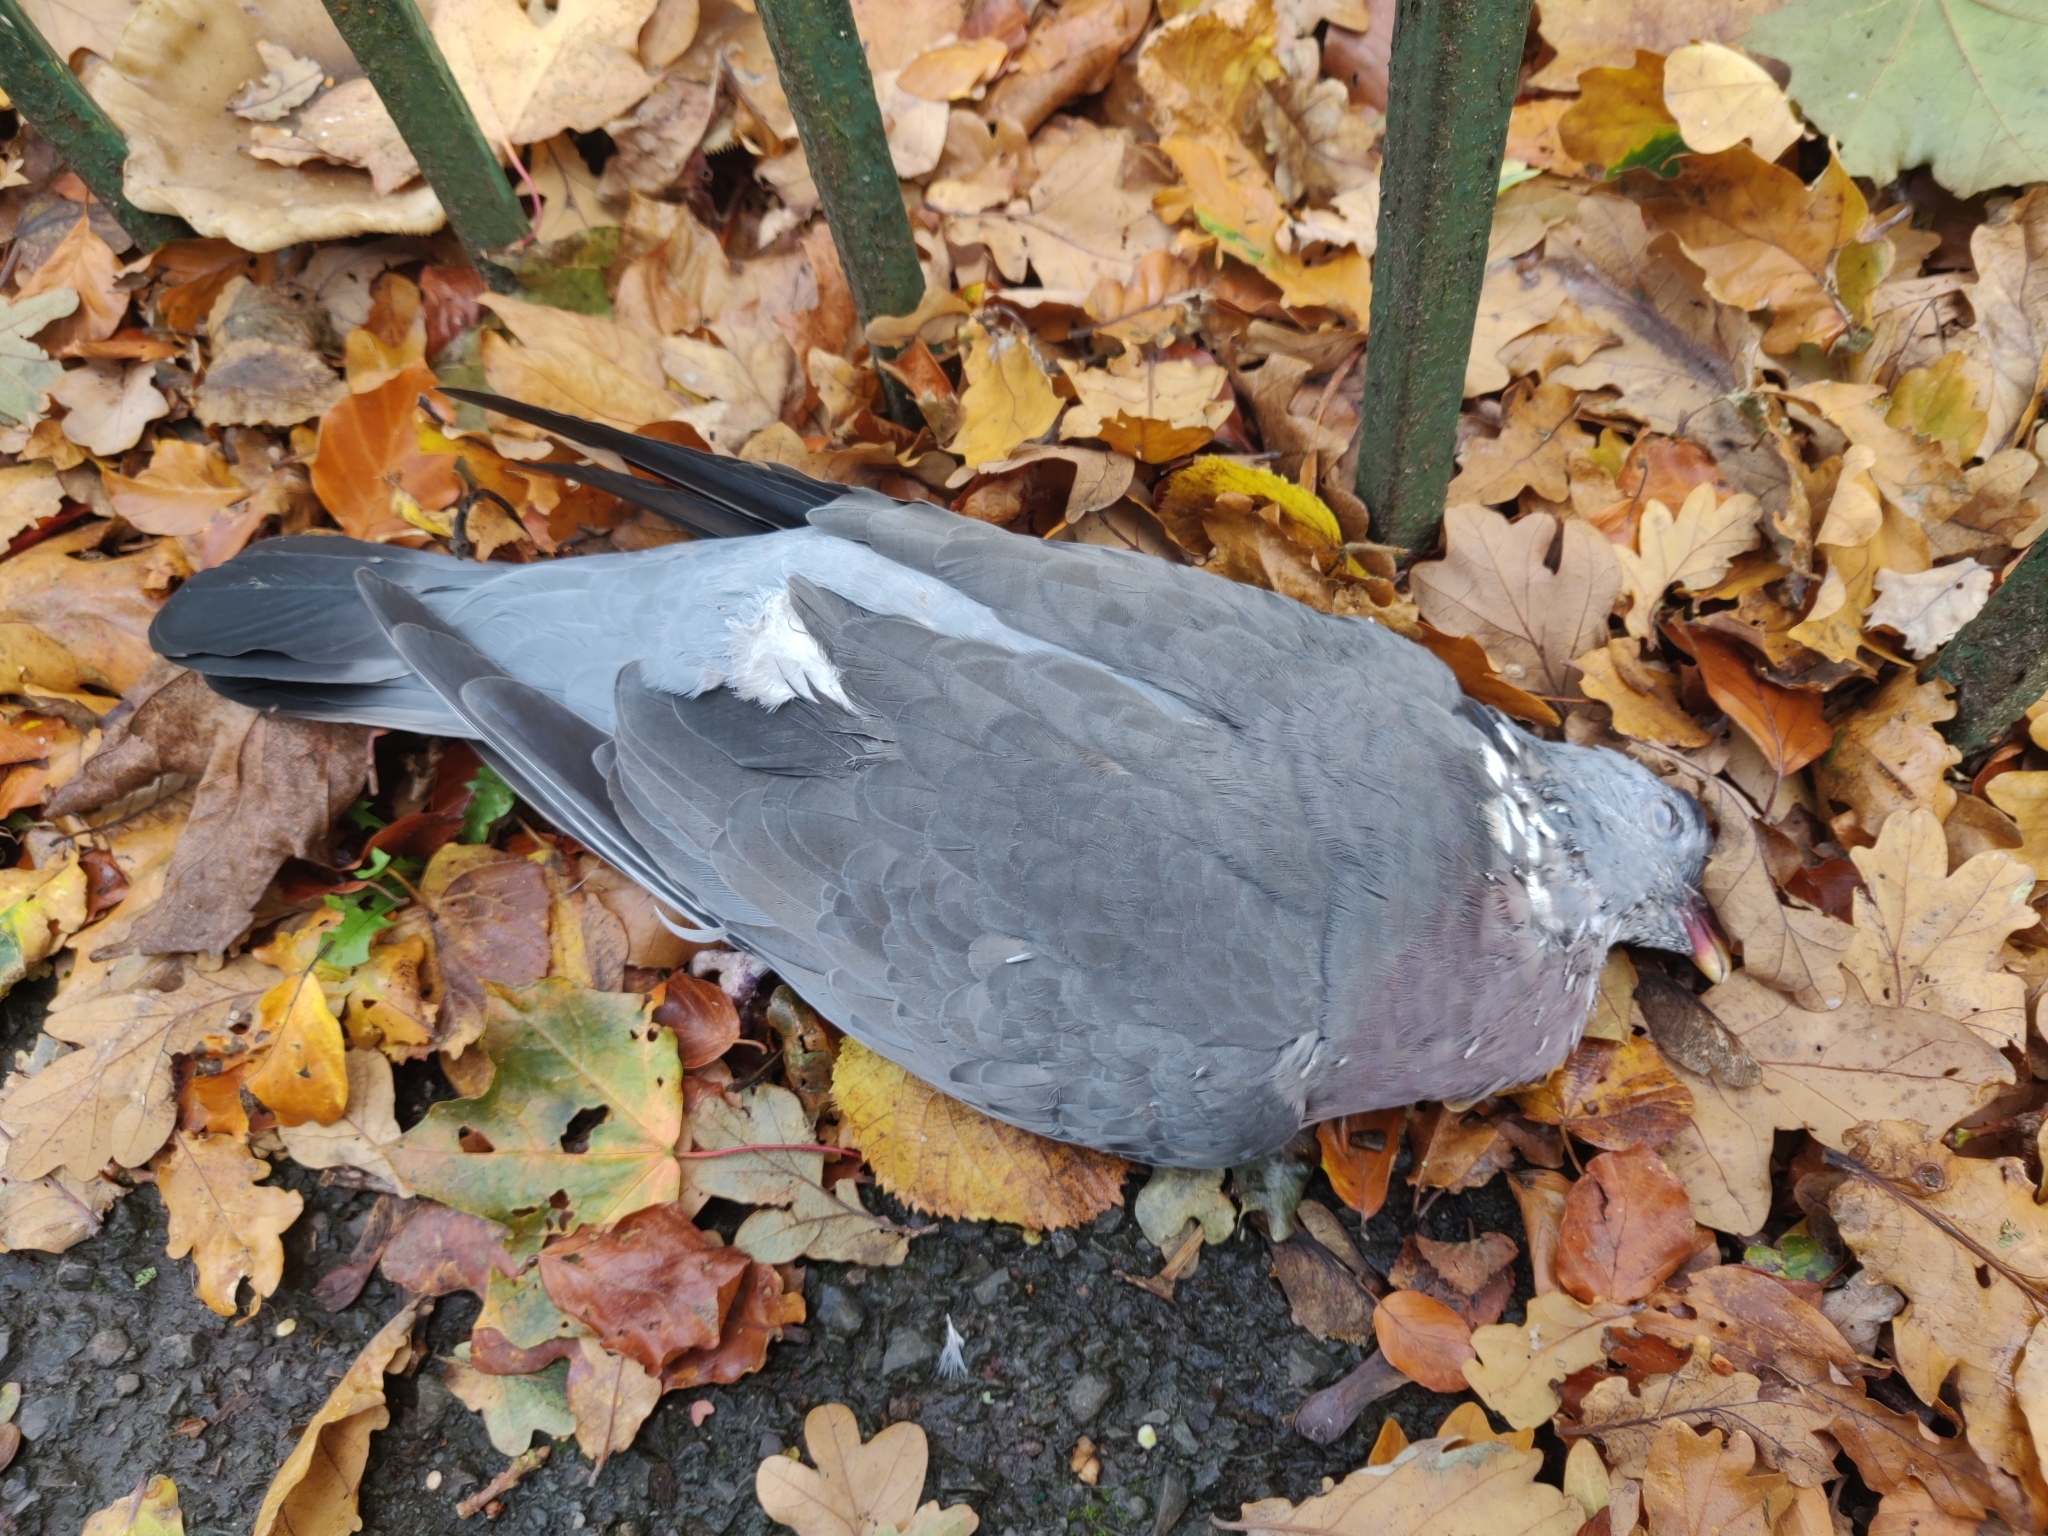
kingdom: Animalia
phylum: Chordata
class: Aves
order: Columbiformes
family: Columbidae
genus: Columba
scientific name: Columba palumbus
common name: Common wood pigeon
